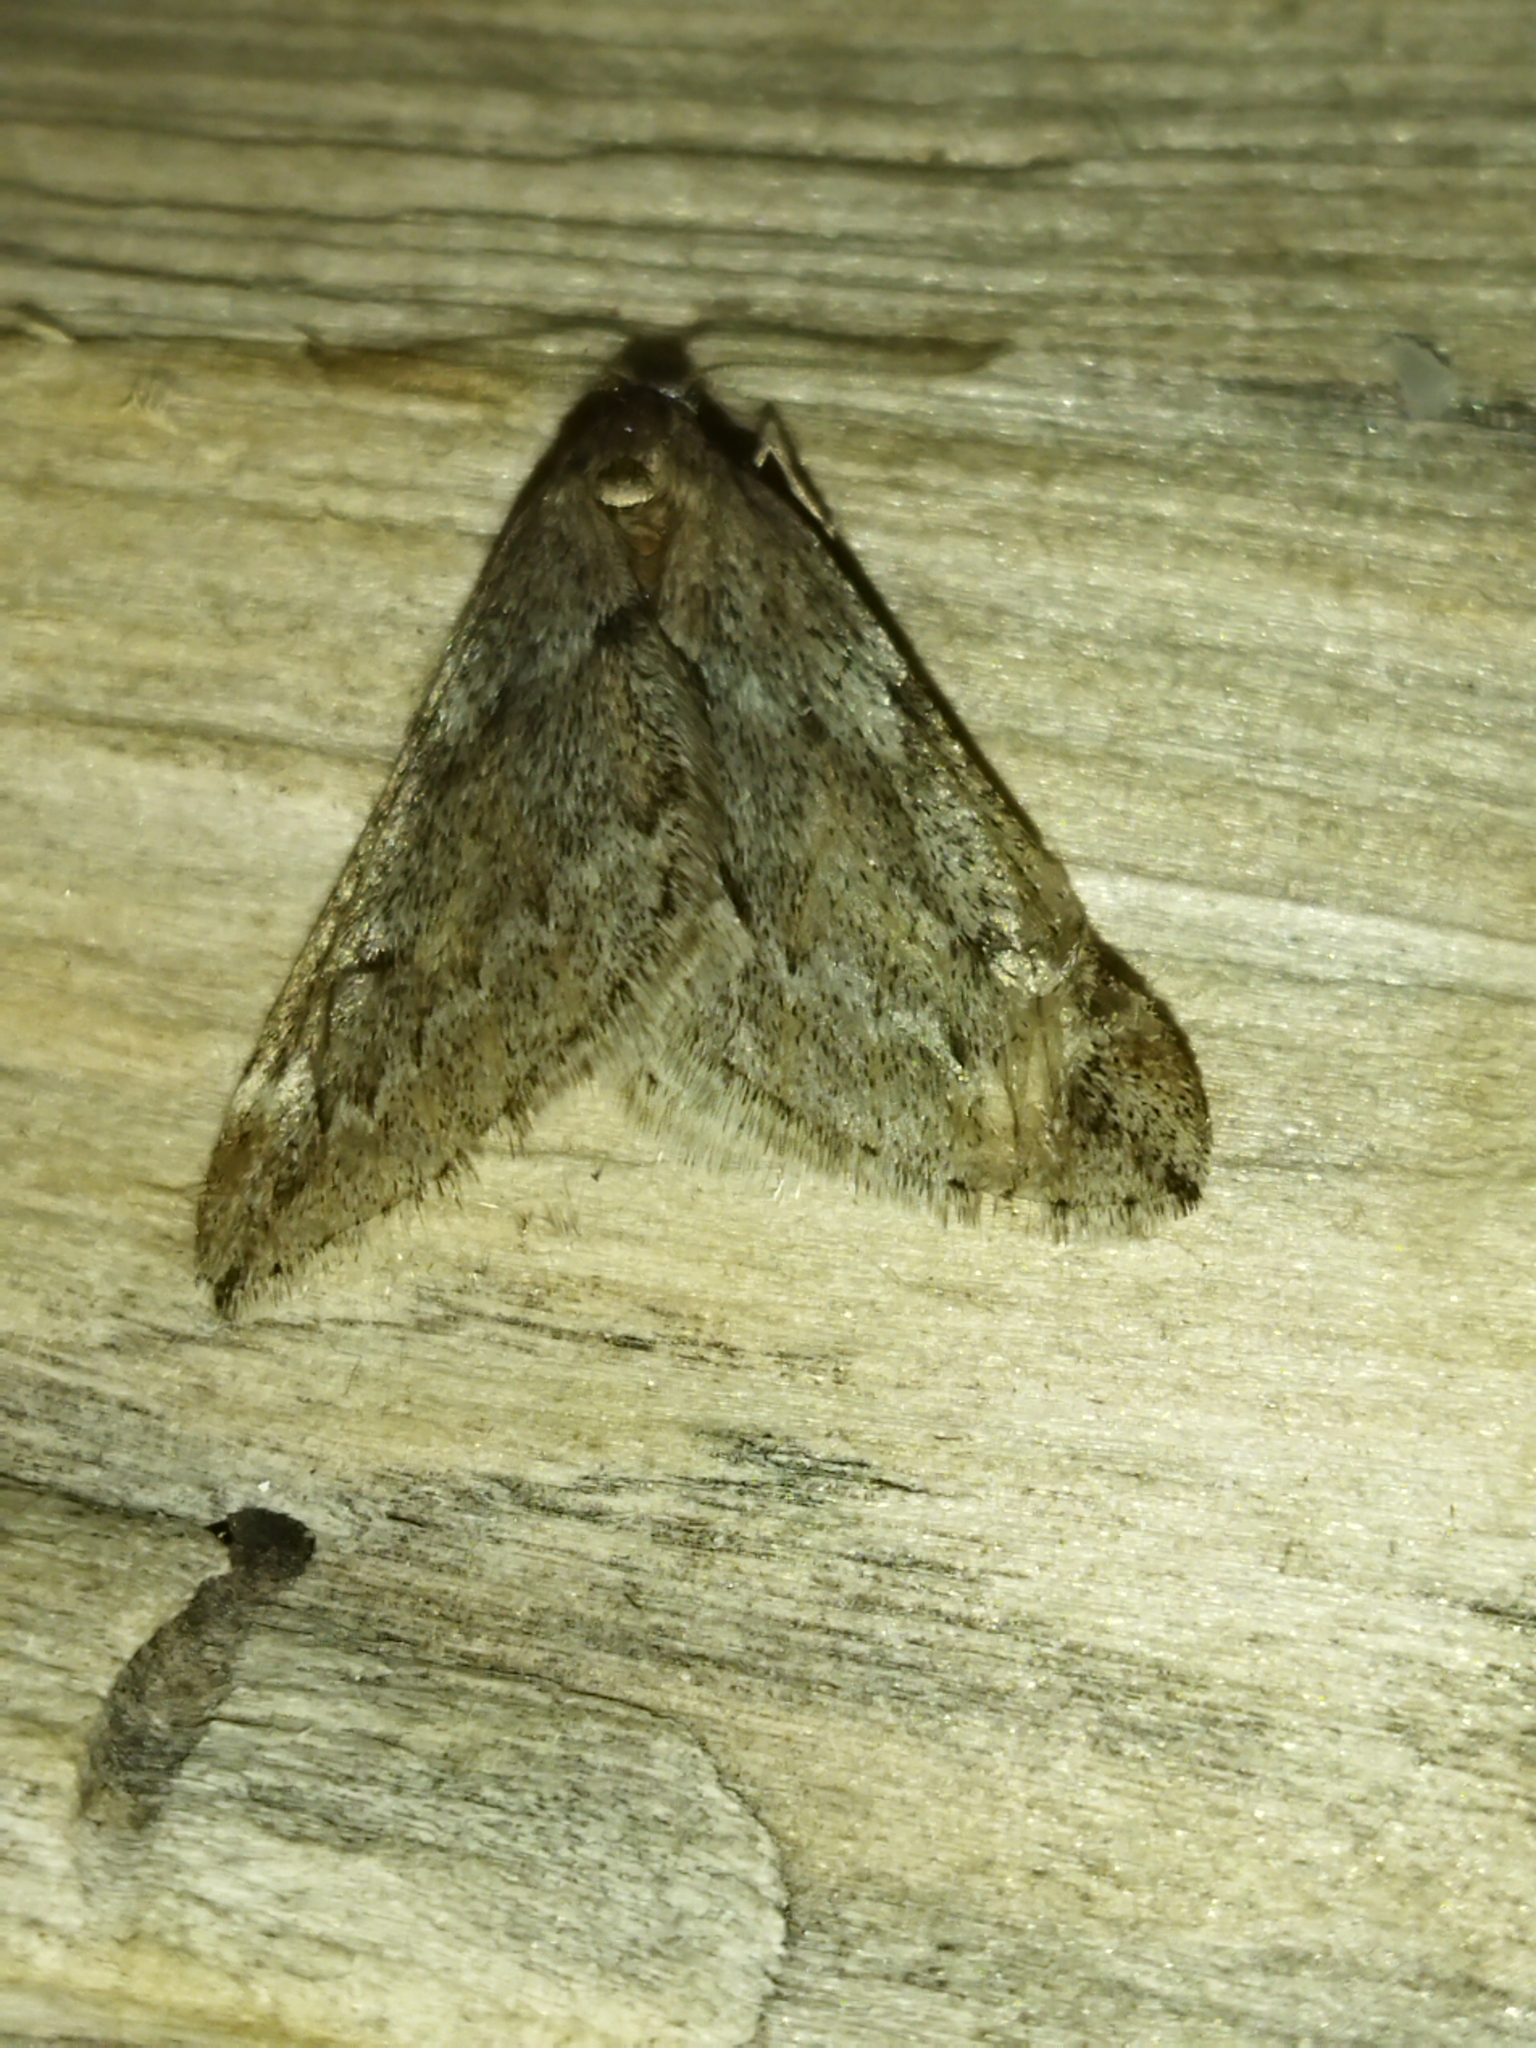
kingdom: Animalia
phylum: Arthropoda
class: Insecta
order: Lepidoptera
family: Geometridae
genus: Alsophila
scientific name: Alsophila aescularia
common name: March moth
